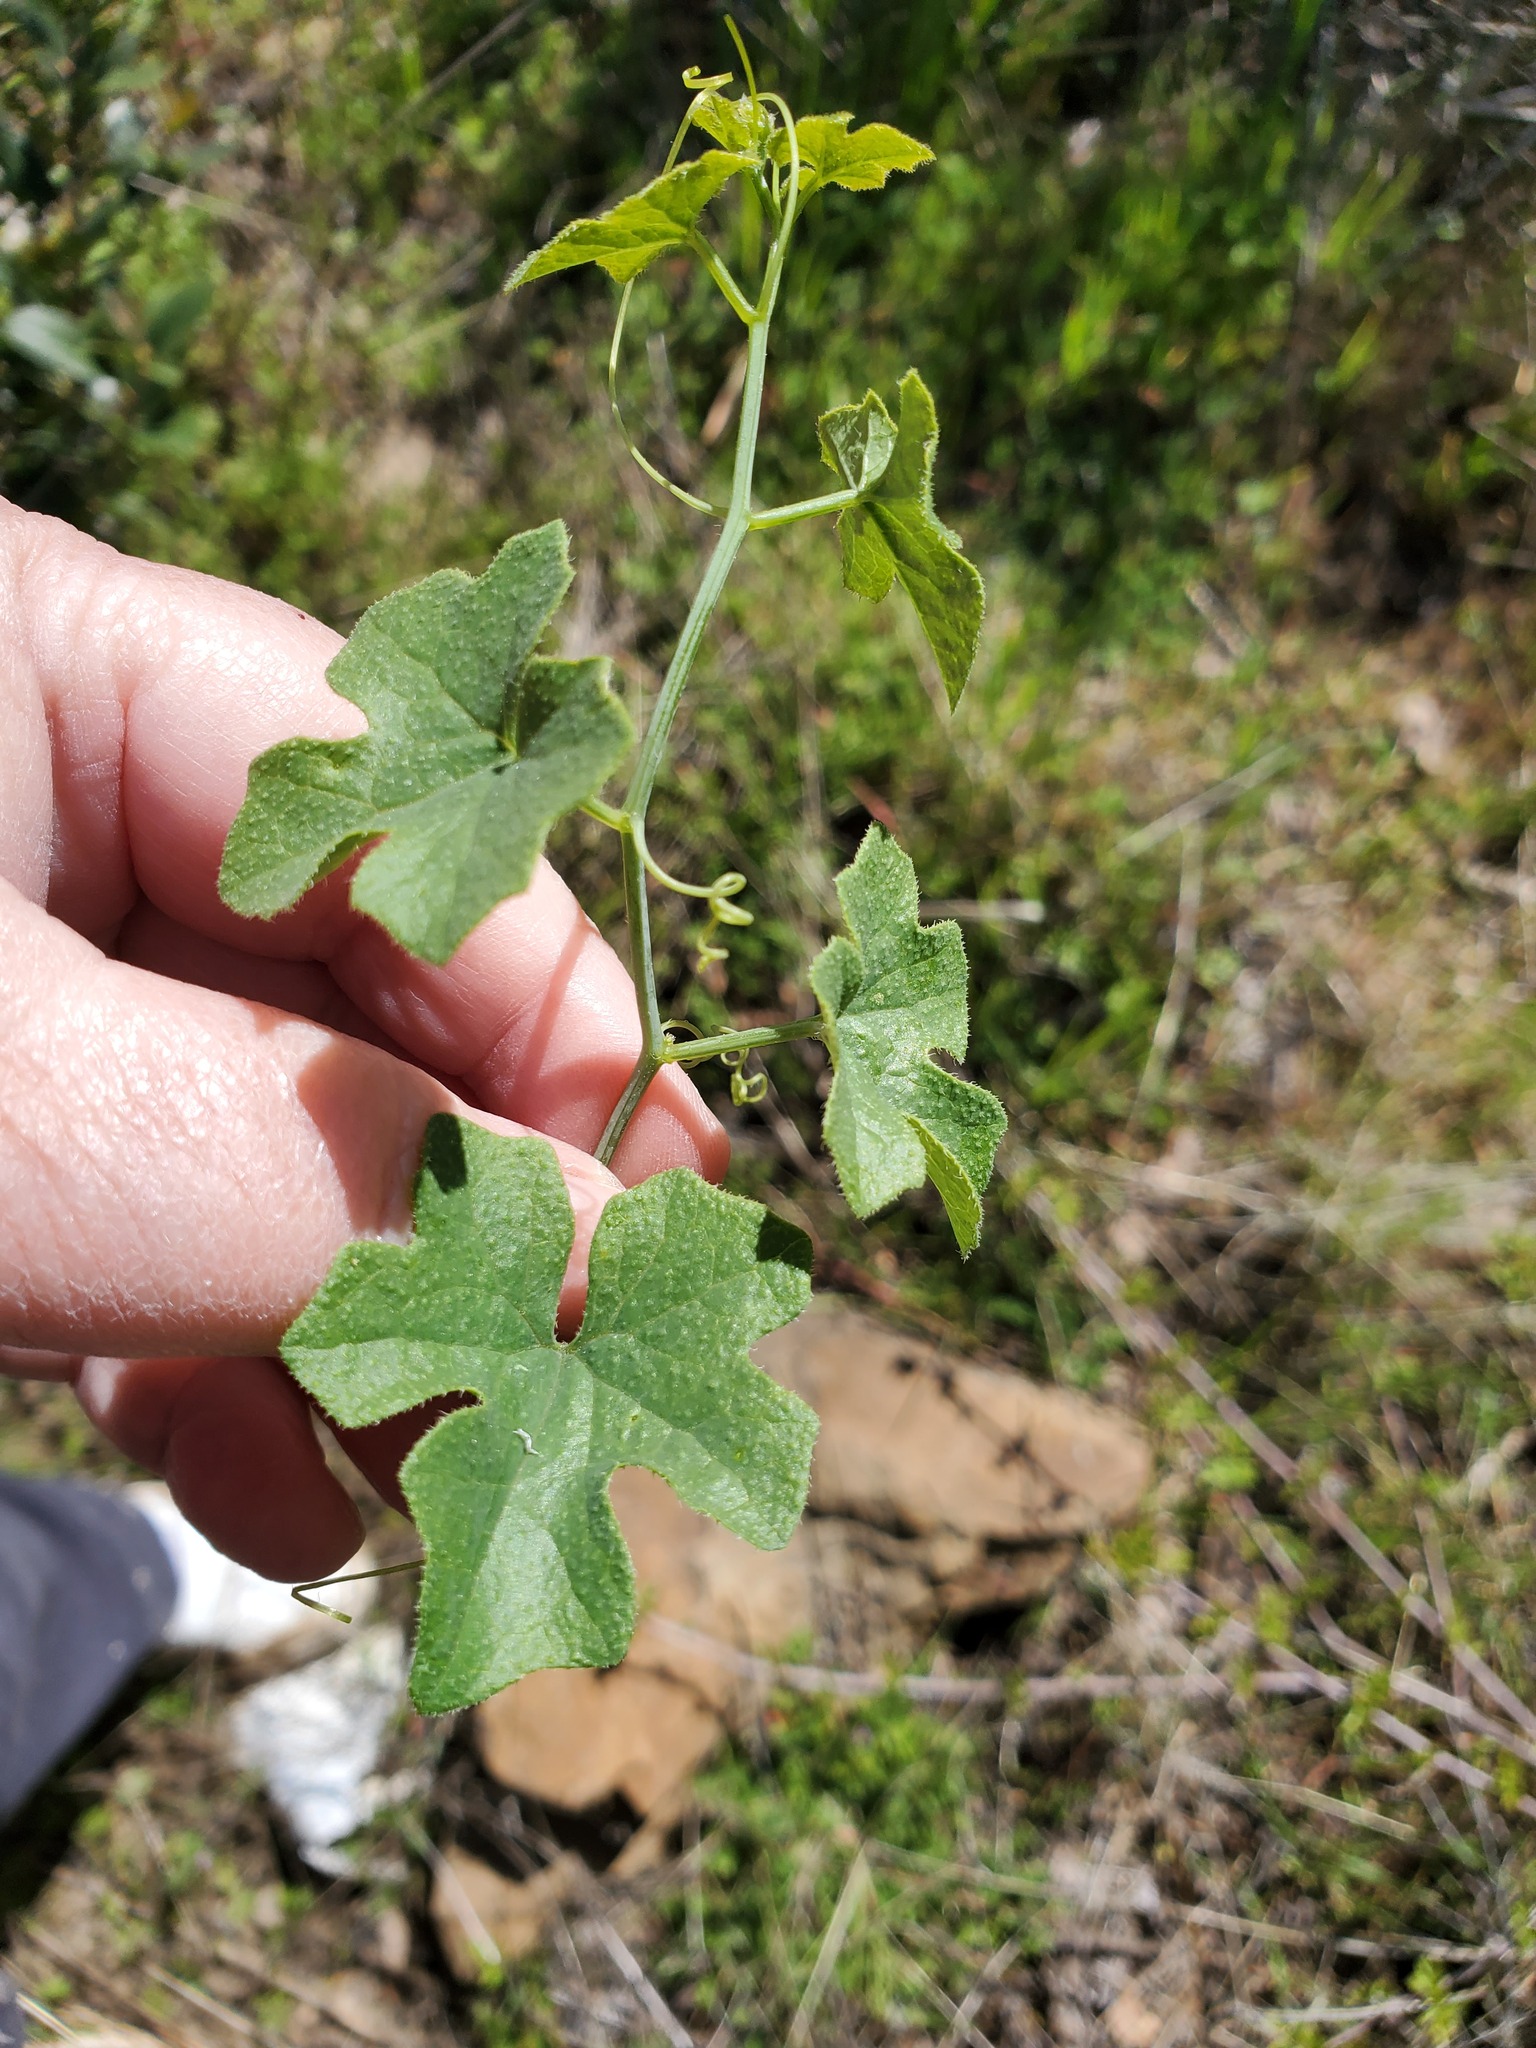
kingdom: Plantae
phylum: Tracheophyta
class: Magnoliopsida
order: Cucurbitales
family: Cucurbitaceae
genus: Marah
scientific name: Marah watsonii
